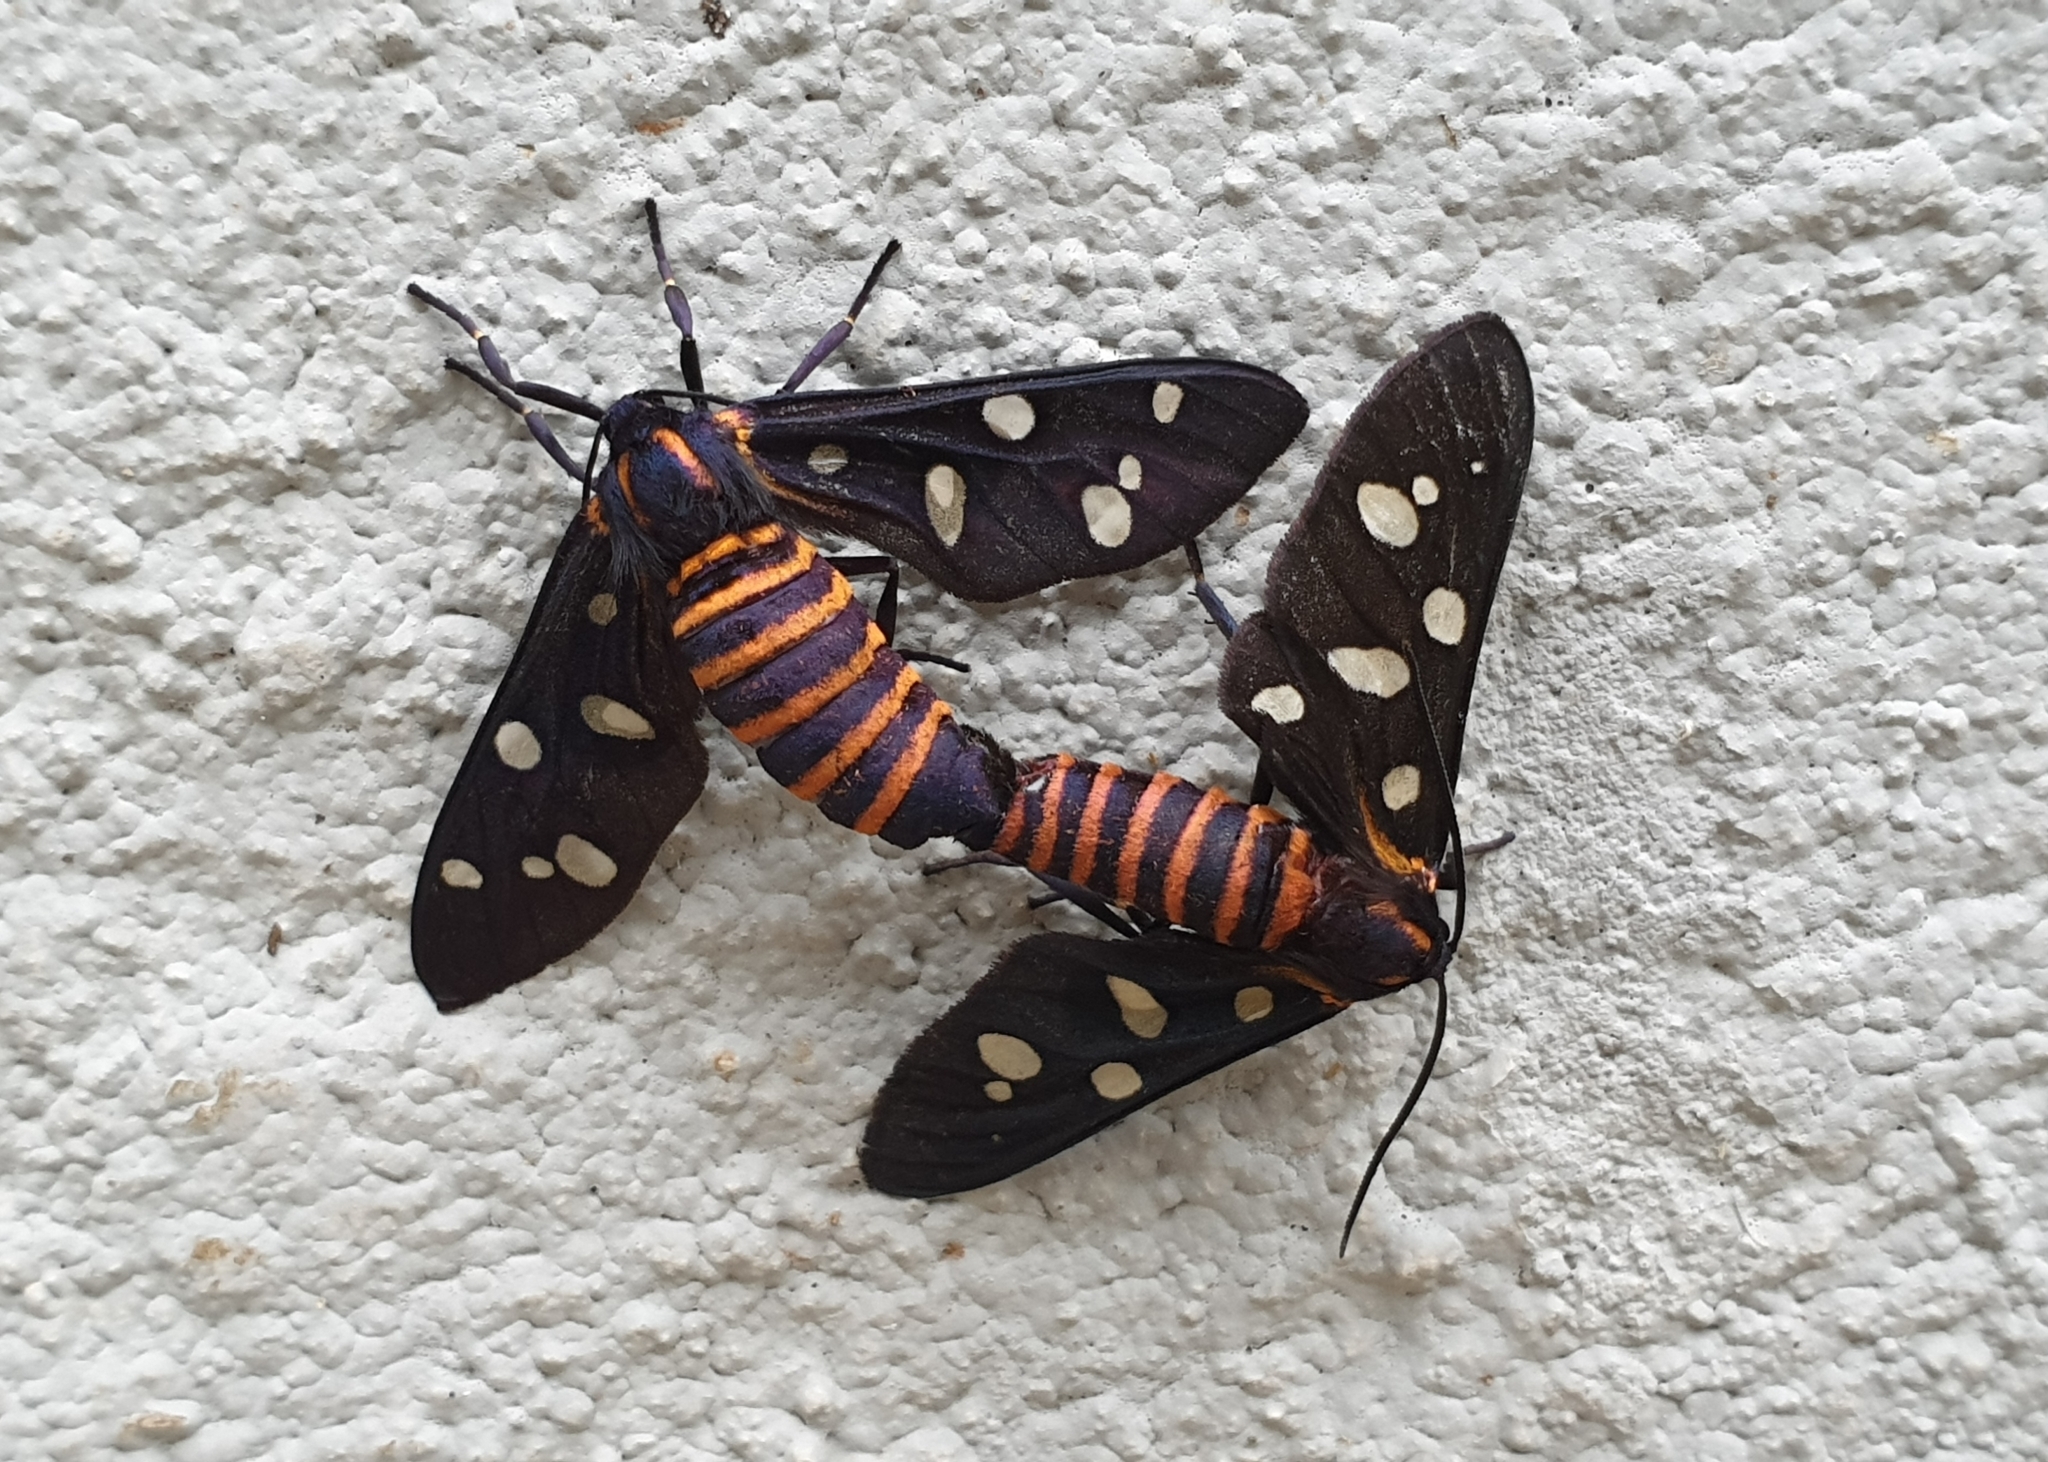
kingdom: Animalia
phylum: Arthropoda
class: Insecta
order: Lepidoptera
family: Erebidae
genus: Amata
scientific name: Amata passalis
